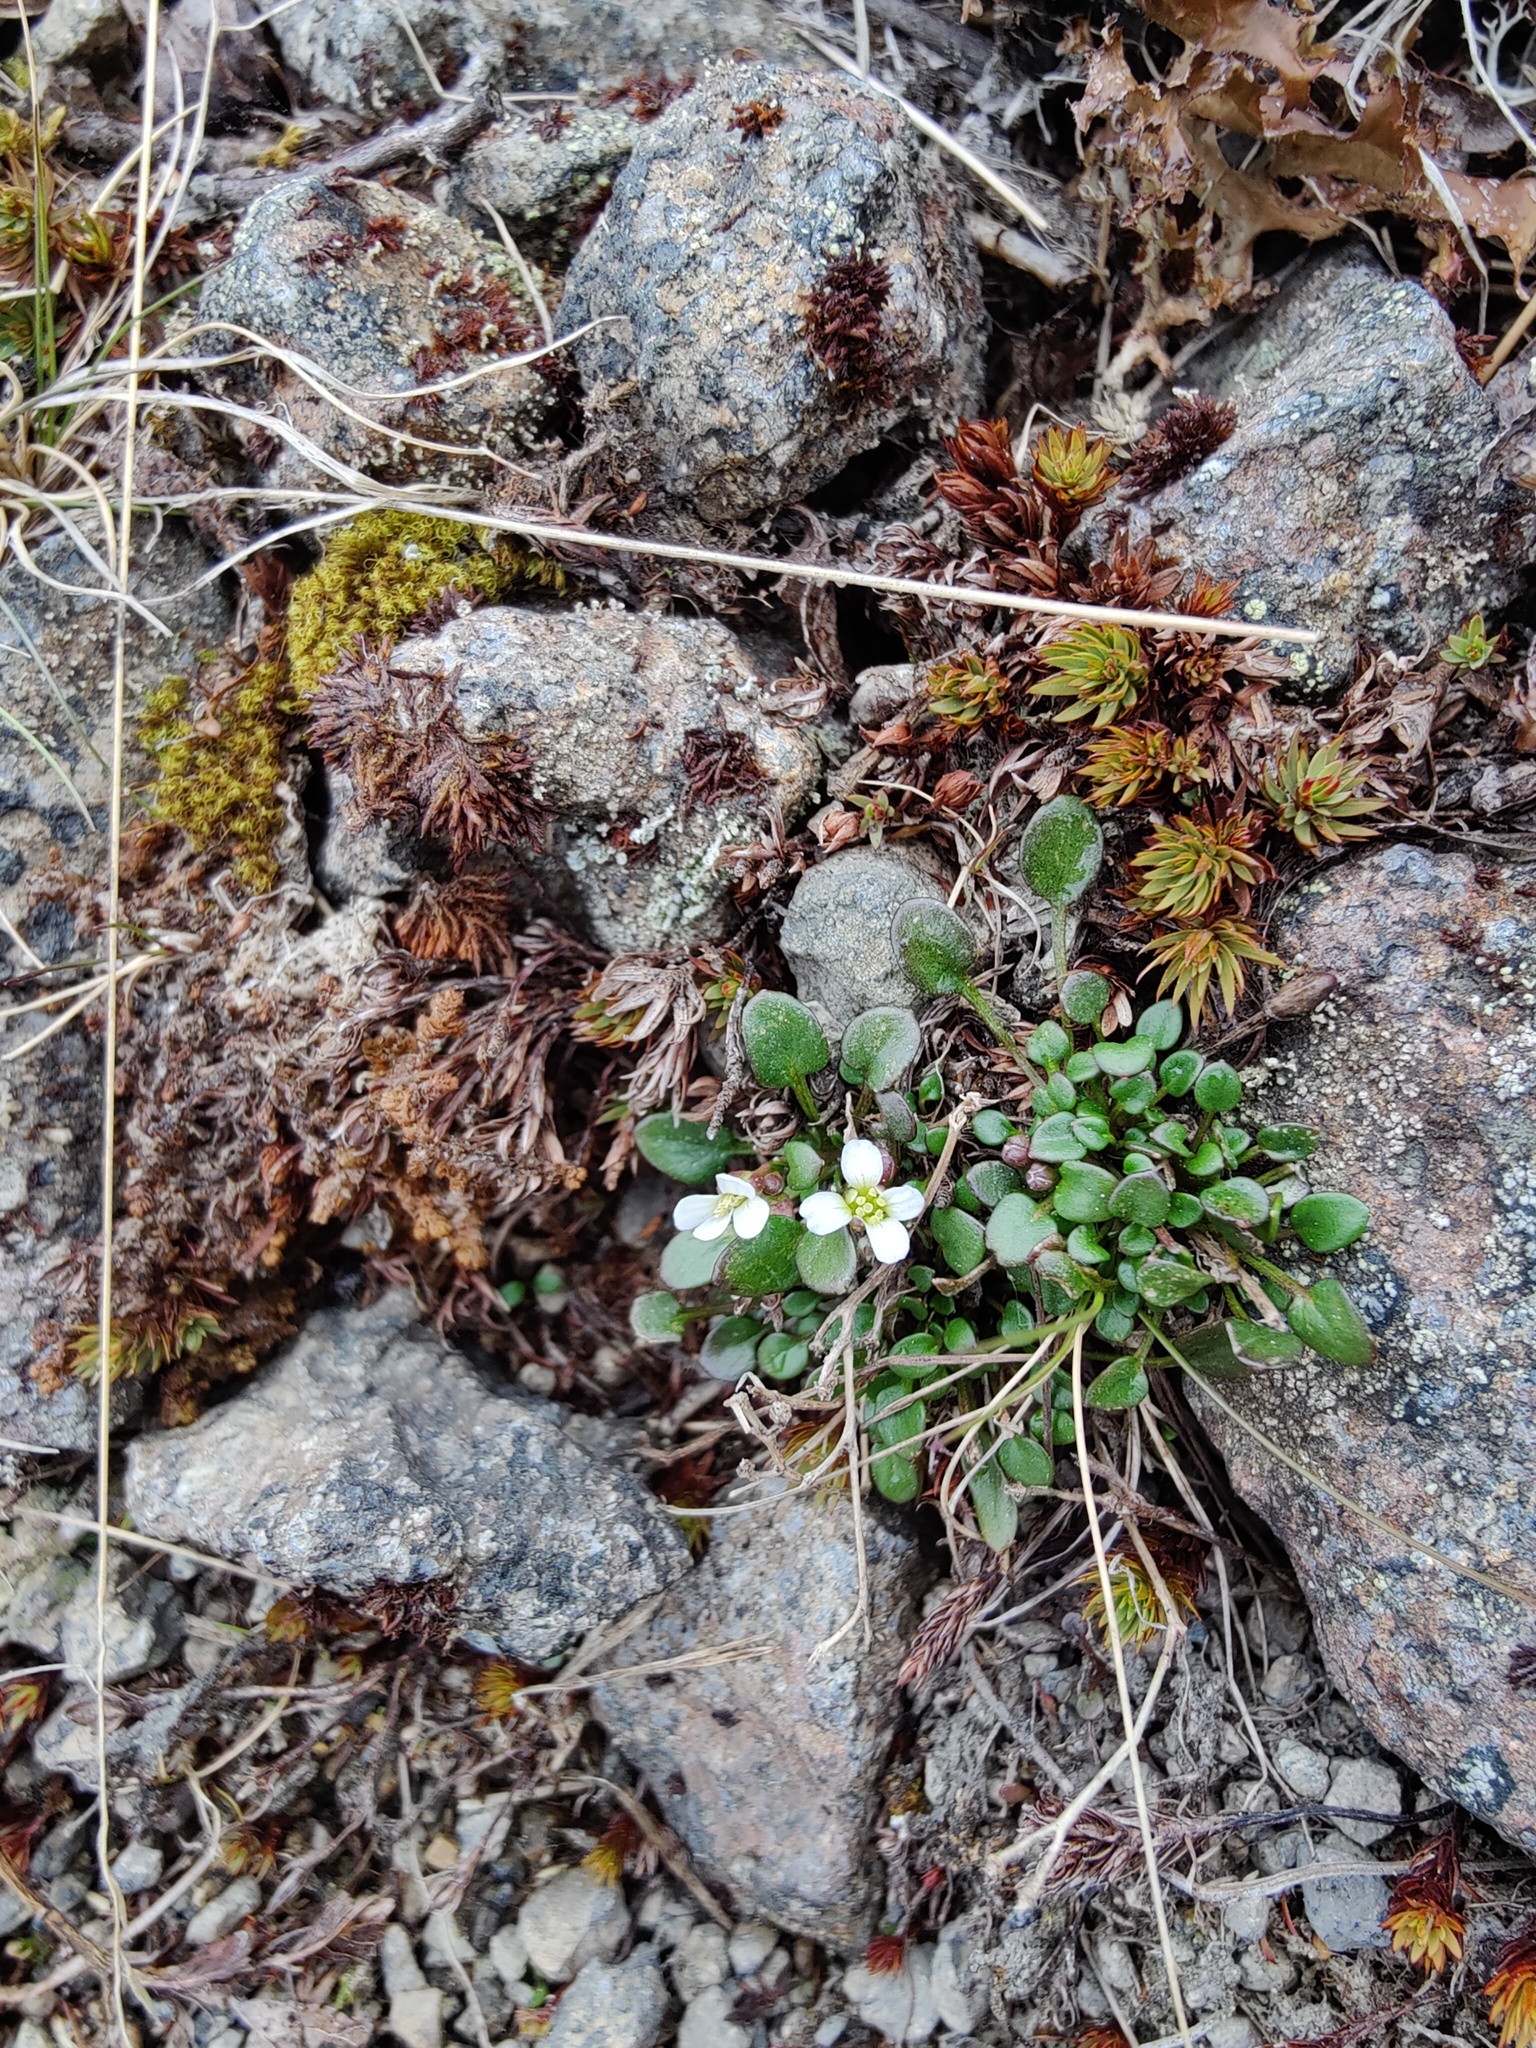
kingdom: Plantae
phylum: Tracheophyta
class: Magnoliopsida
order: Brassicales
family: Brassicaceae
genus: Cardamine
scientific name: Cardamine bellidifolia
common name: Alpine bittercress
